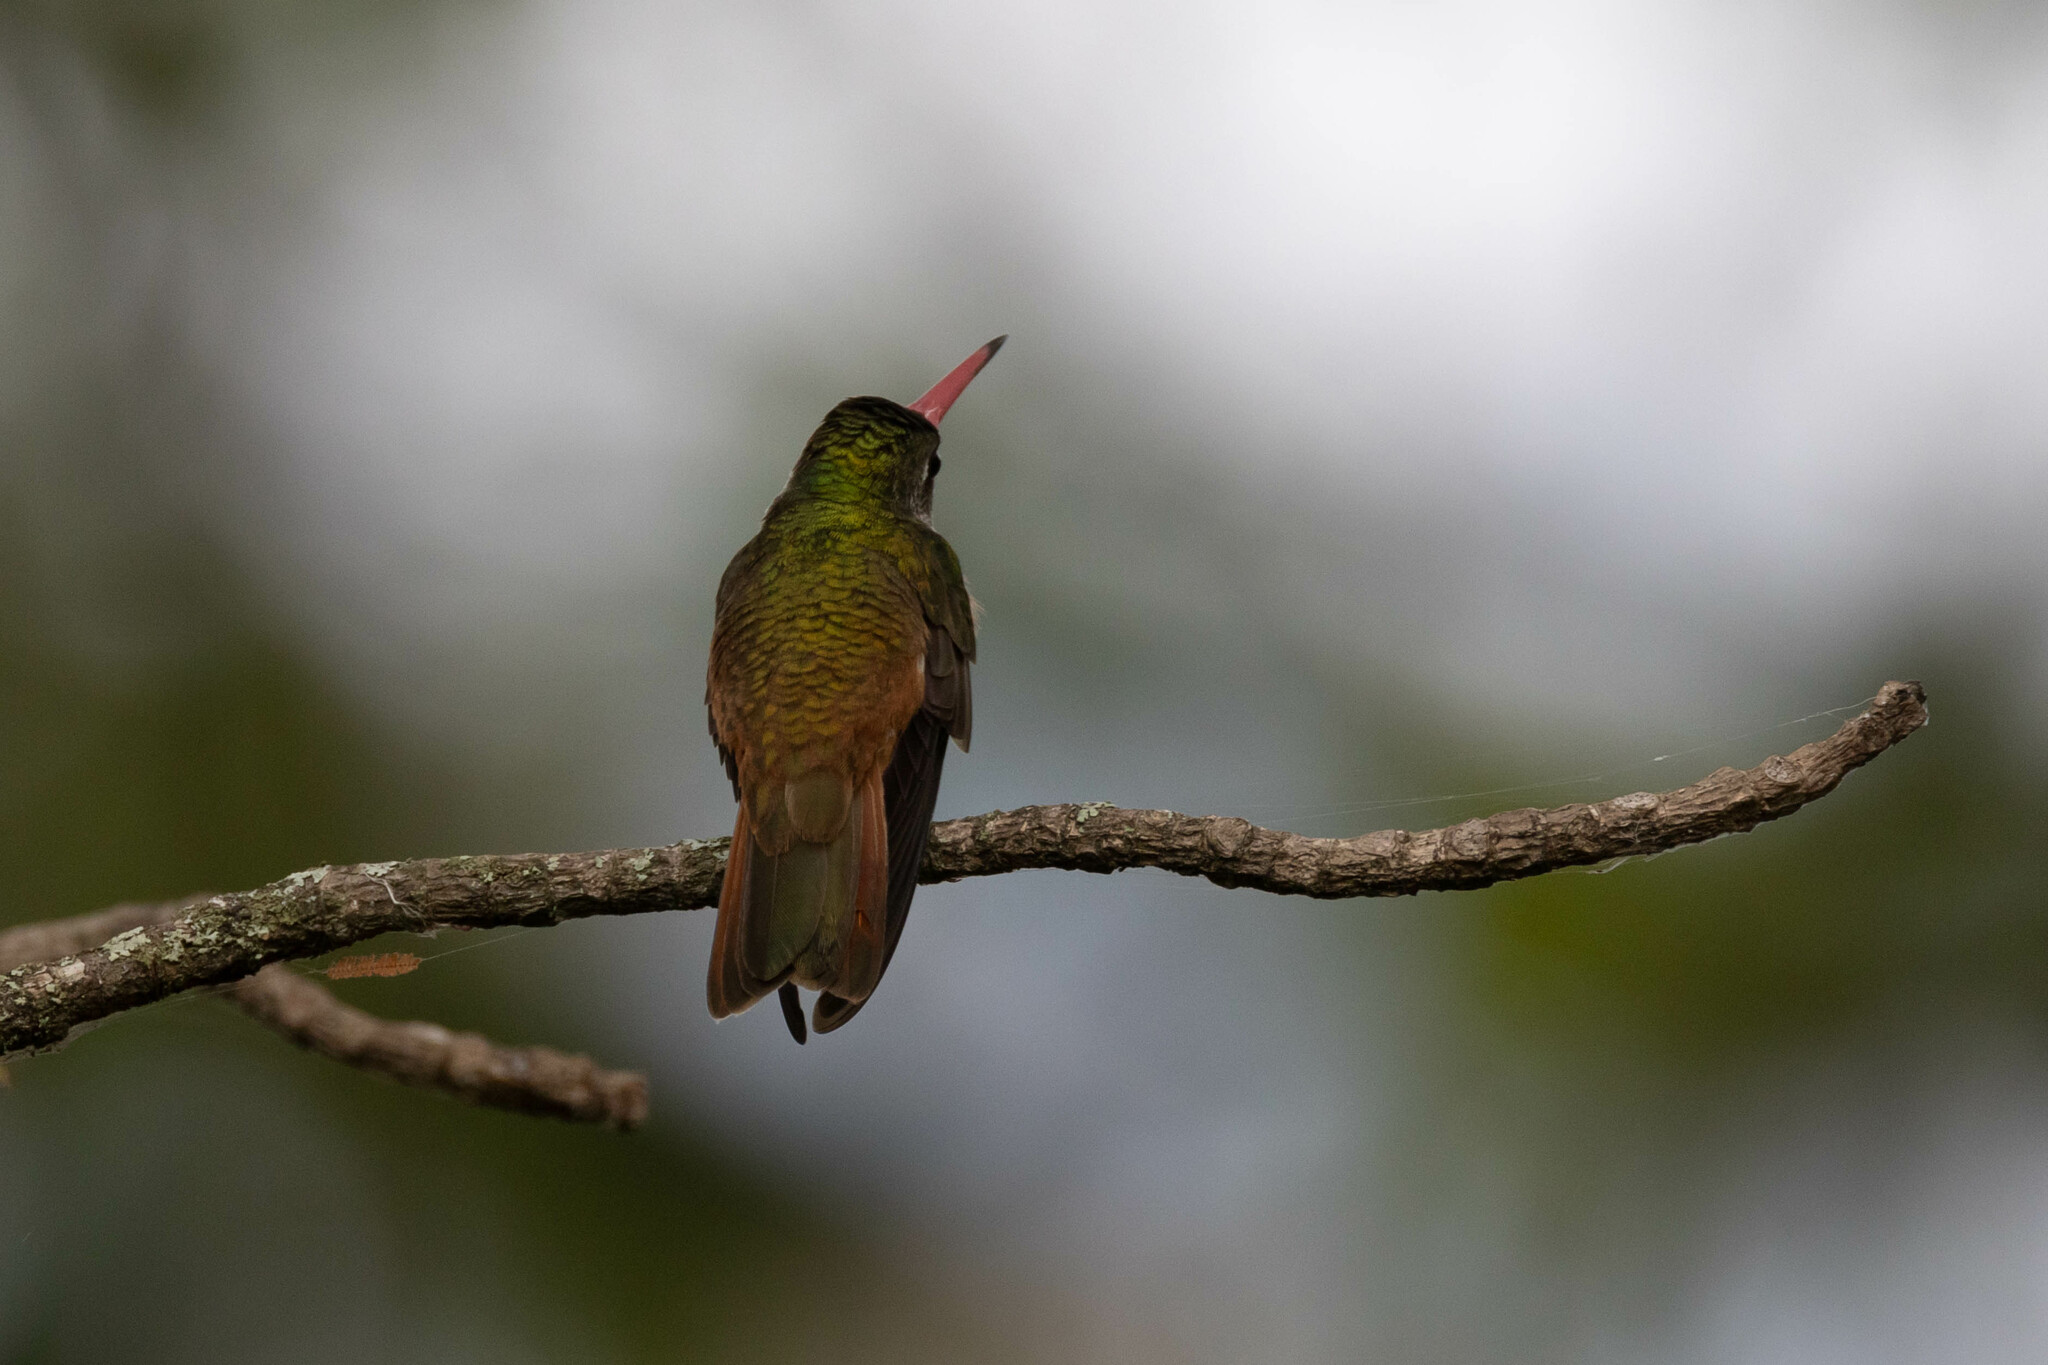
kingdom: Animalia
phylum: Chordata
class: Aves
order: Apodiformes
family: Trochilidae
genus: Amazilis
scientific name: Amazilis amazilia
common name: Amazilia hummingbird
